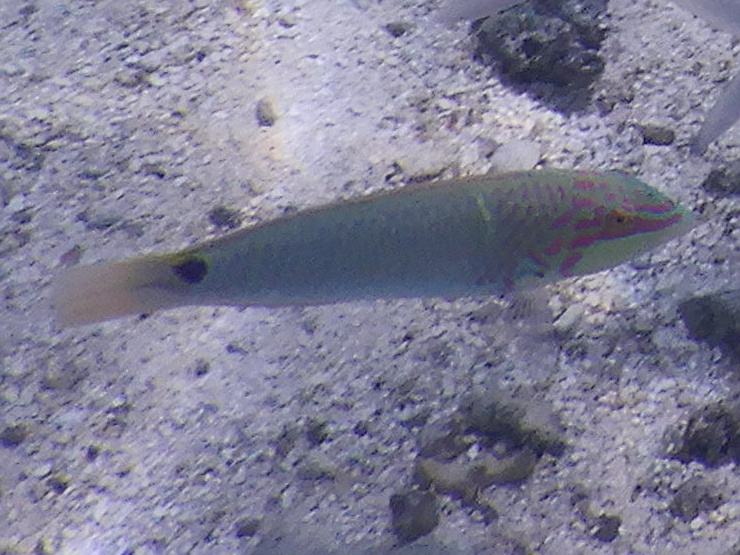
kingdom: Animalia
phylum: Chordata
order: Perciformes
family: Labridae
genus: Halichoeres
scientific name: Halichoeres trimaculatus
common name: Three-spot wrasse
